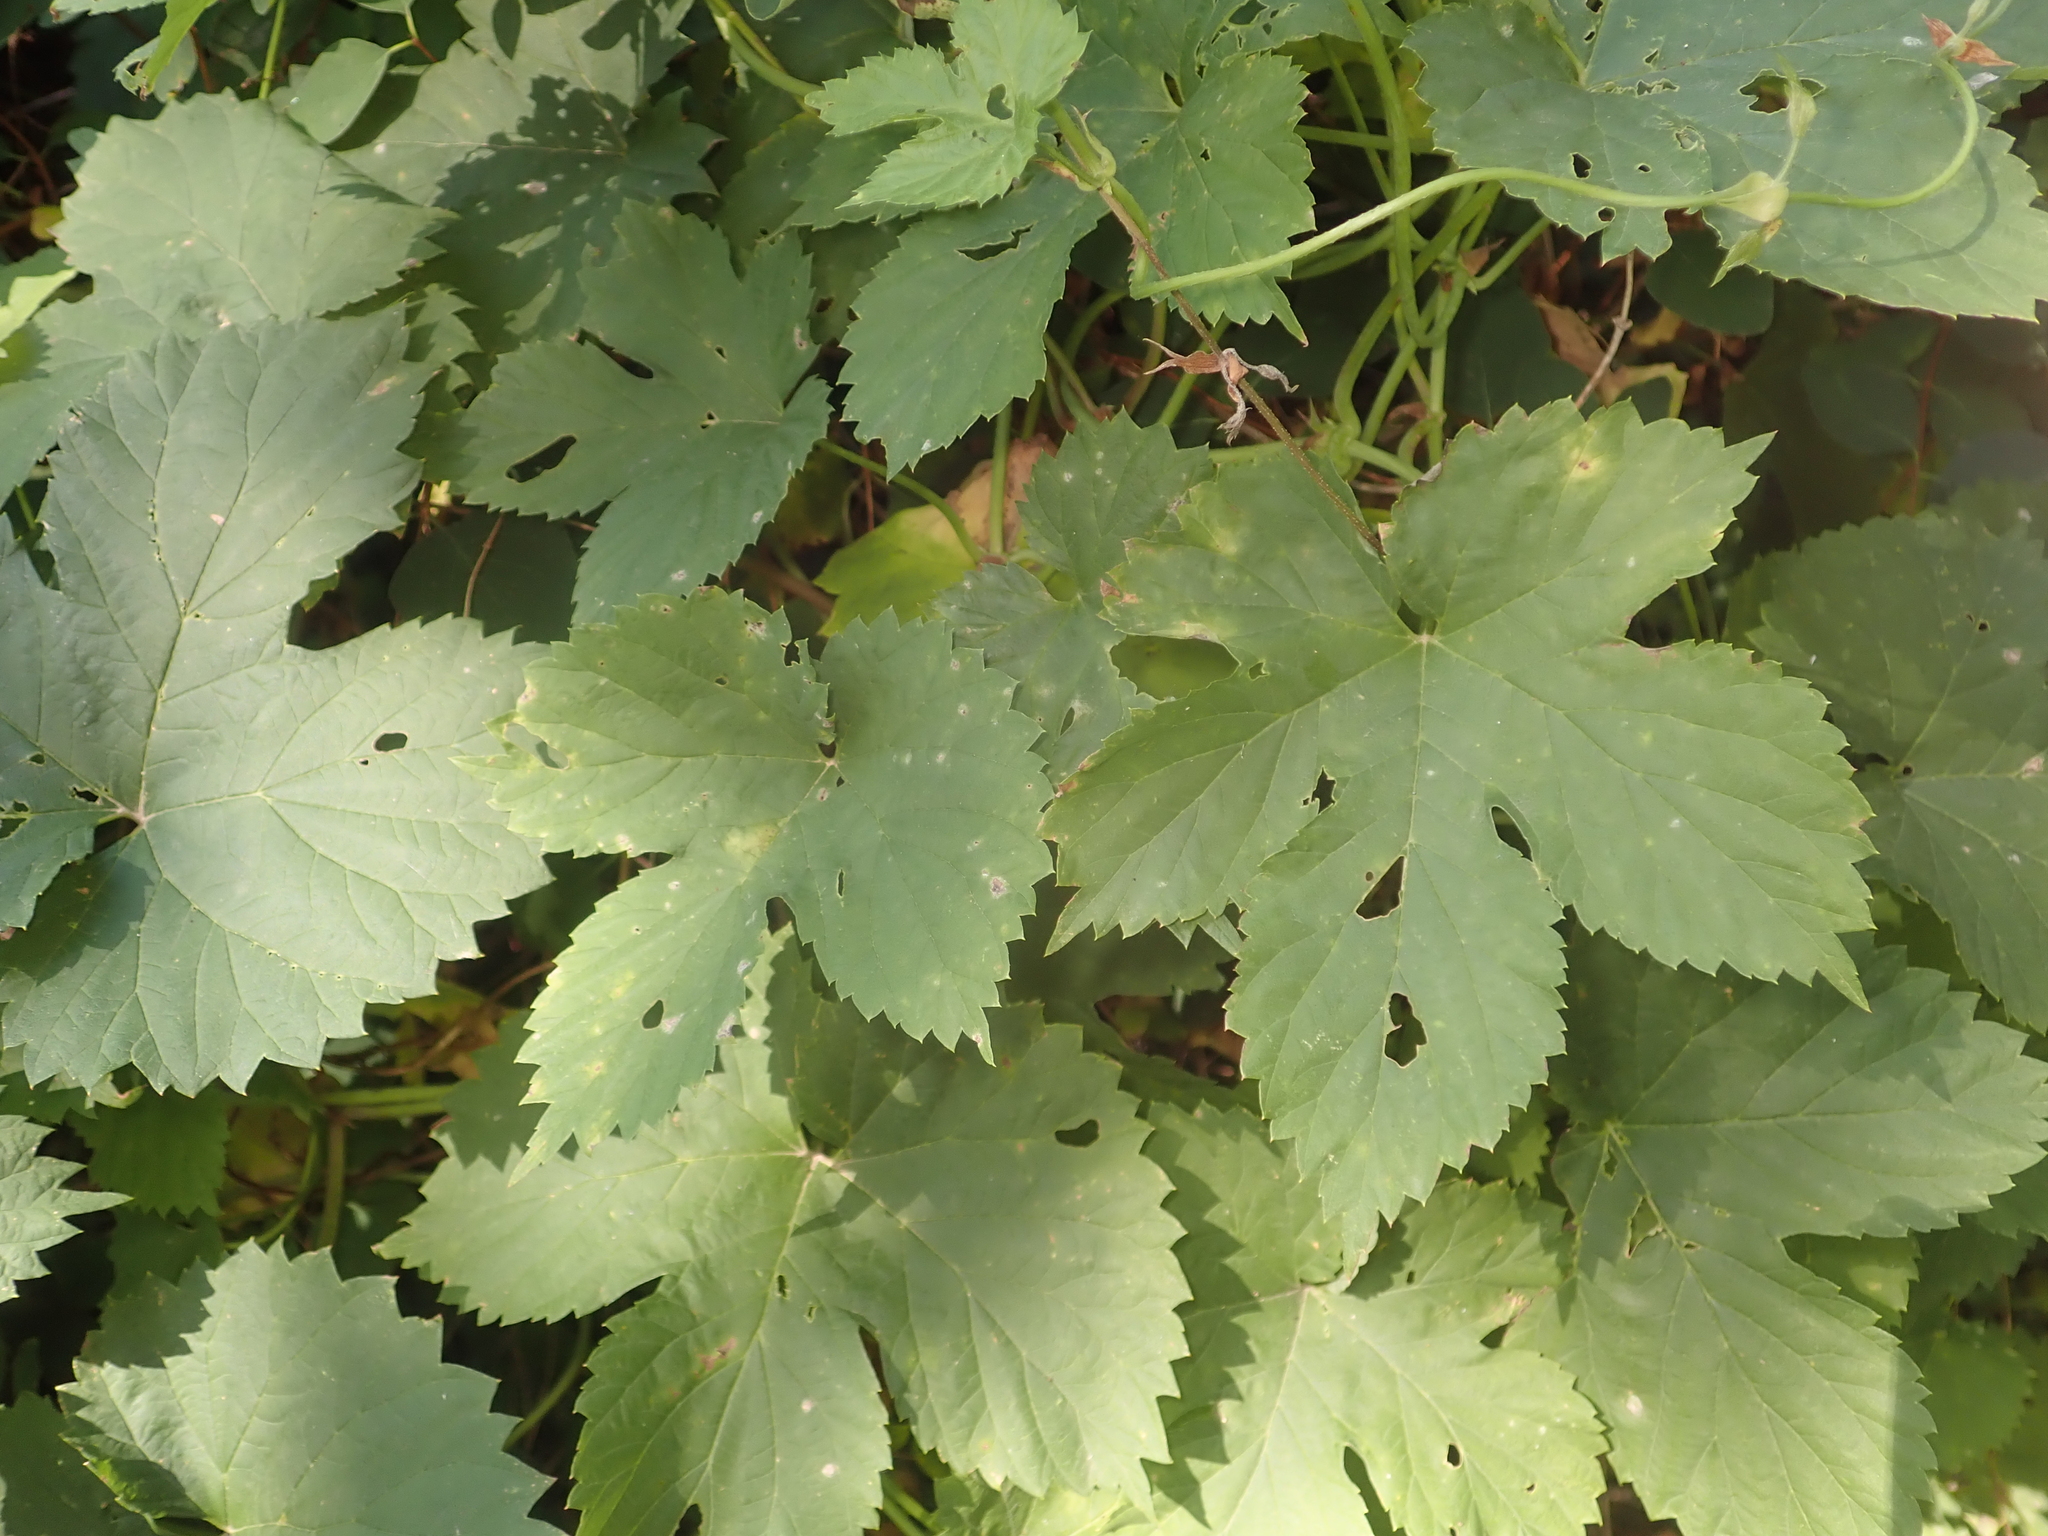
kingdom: Plantae
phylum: Tracheophyta
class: Magnoliopsida
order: Rosales
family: Cannabaceae
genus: Humulus
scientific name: Humulus lupulus
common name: Hop
